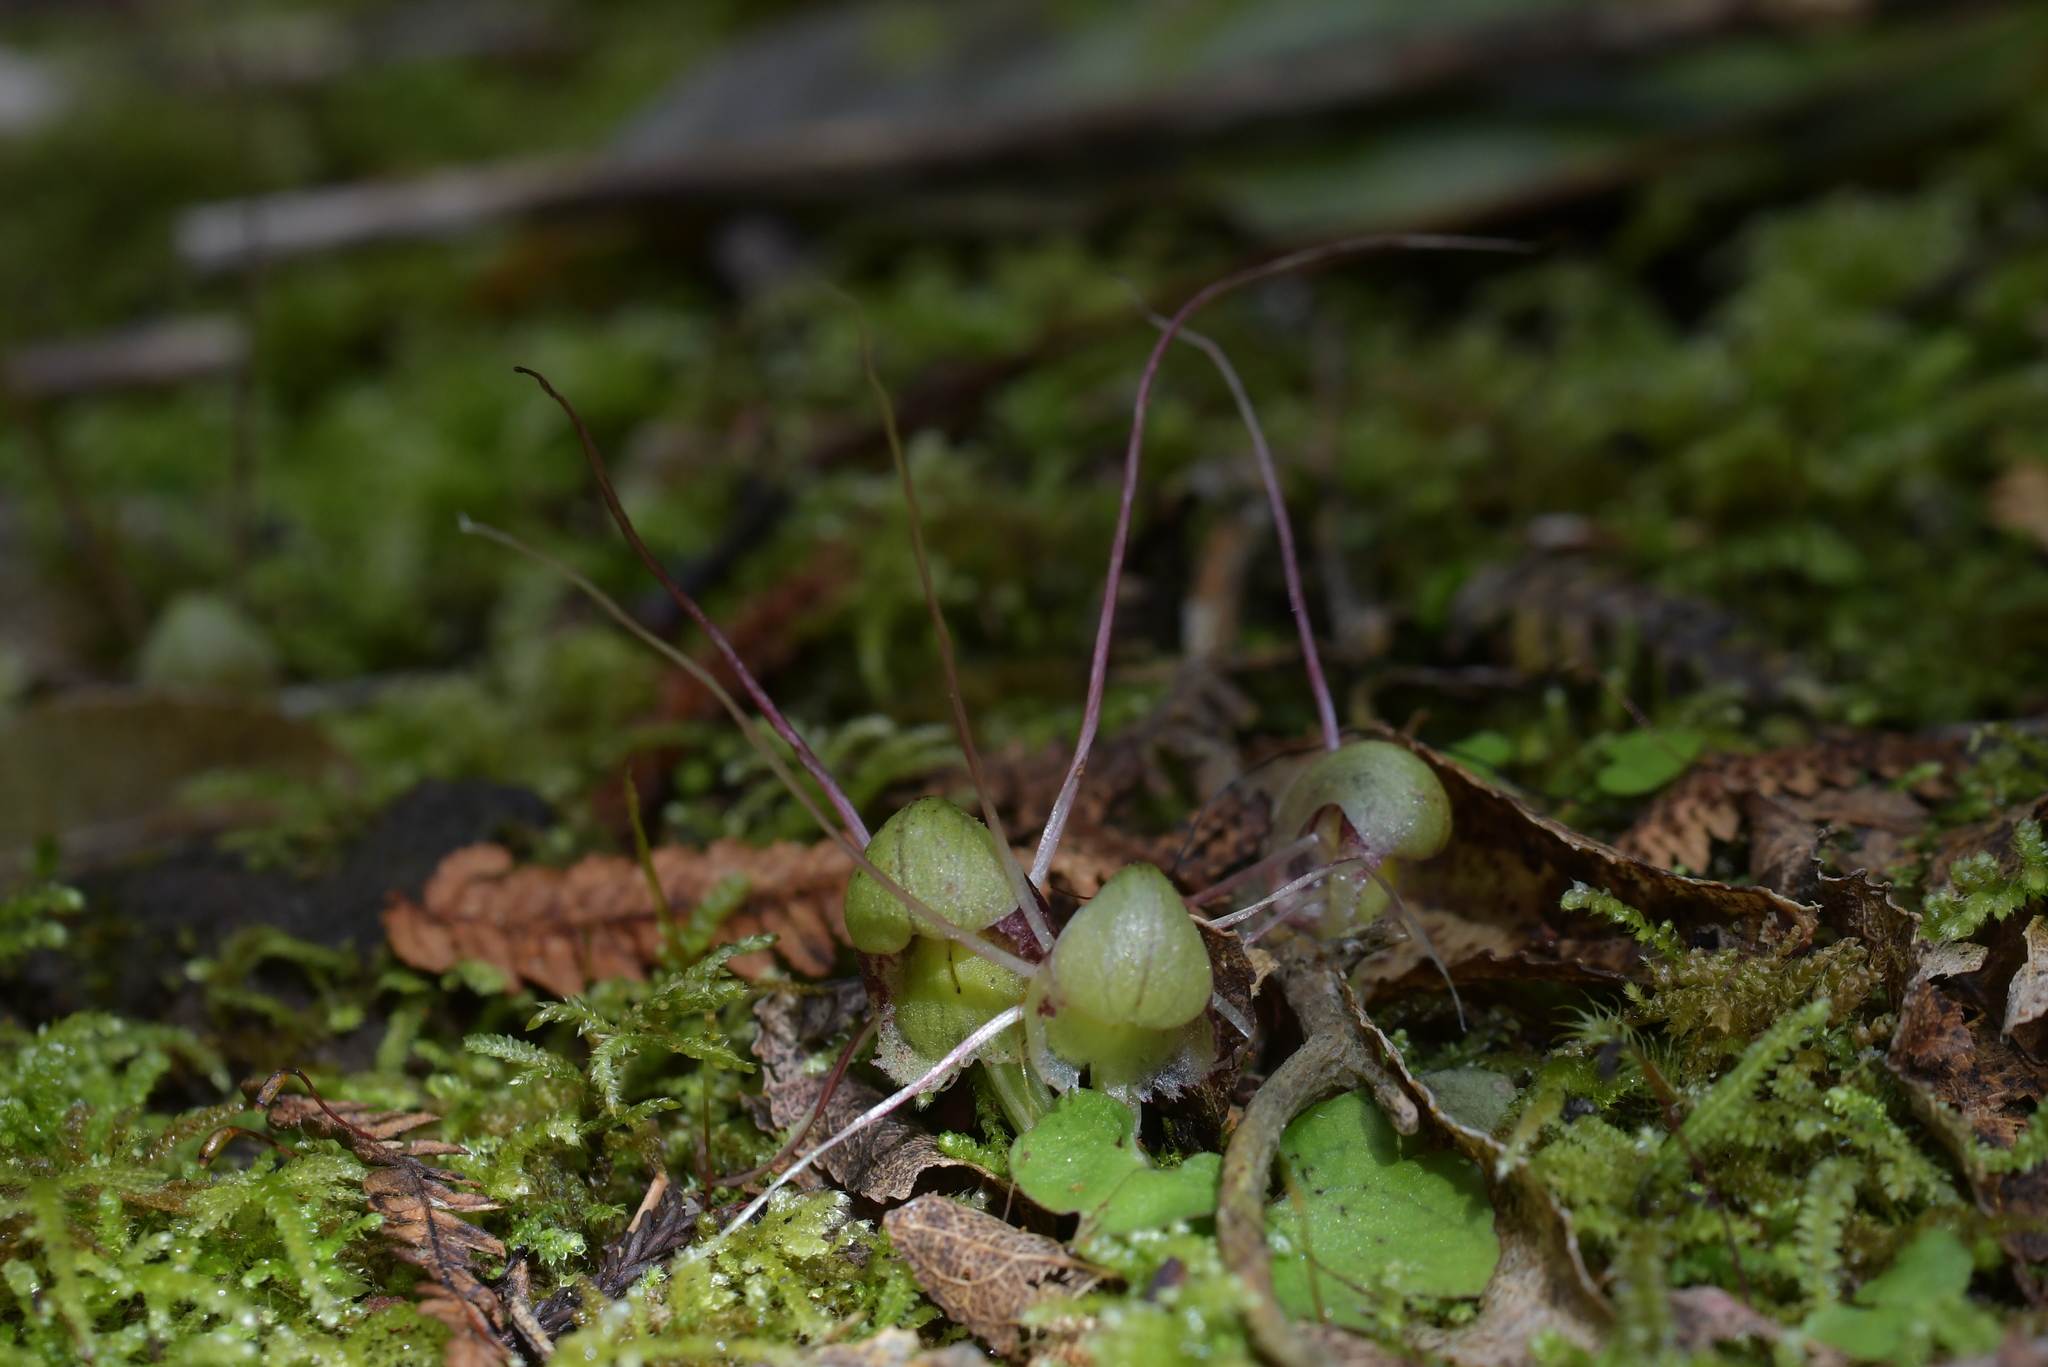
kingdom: Plantae
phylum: Tracheophyta
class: Liliopsida
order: Asparagales
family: Orchidaceae
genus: Corybas
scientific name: Corybas vitreus
